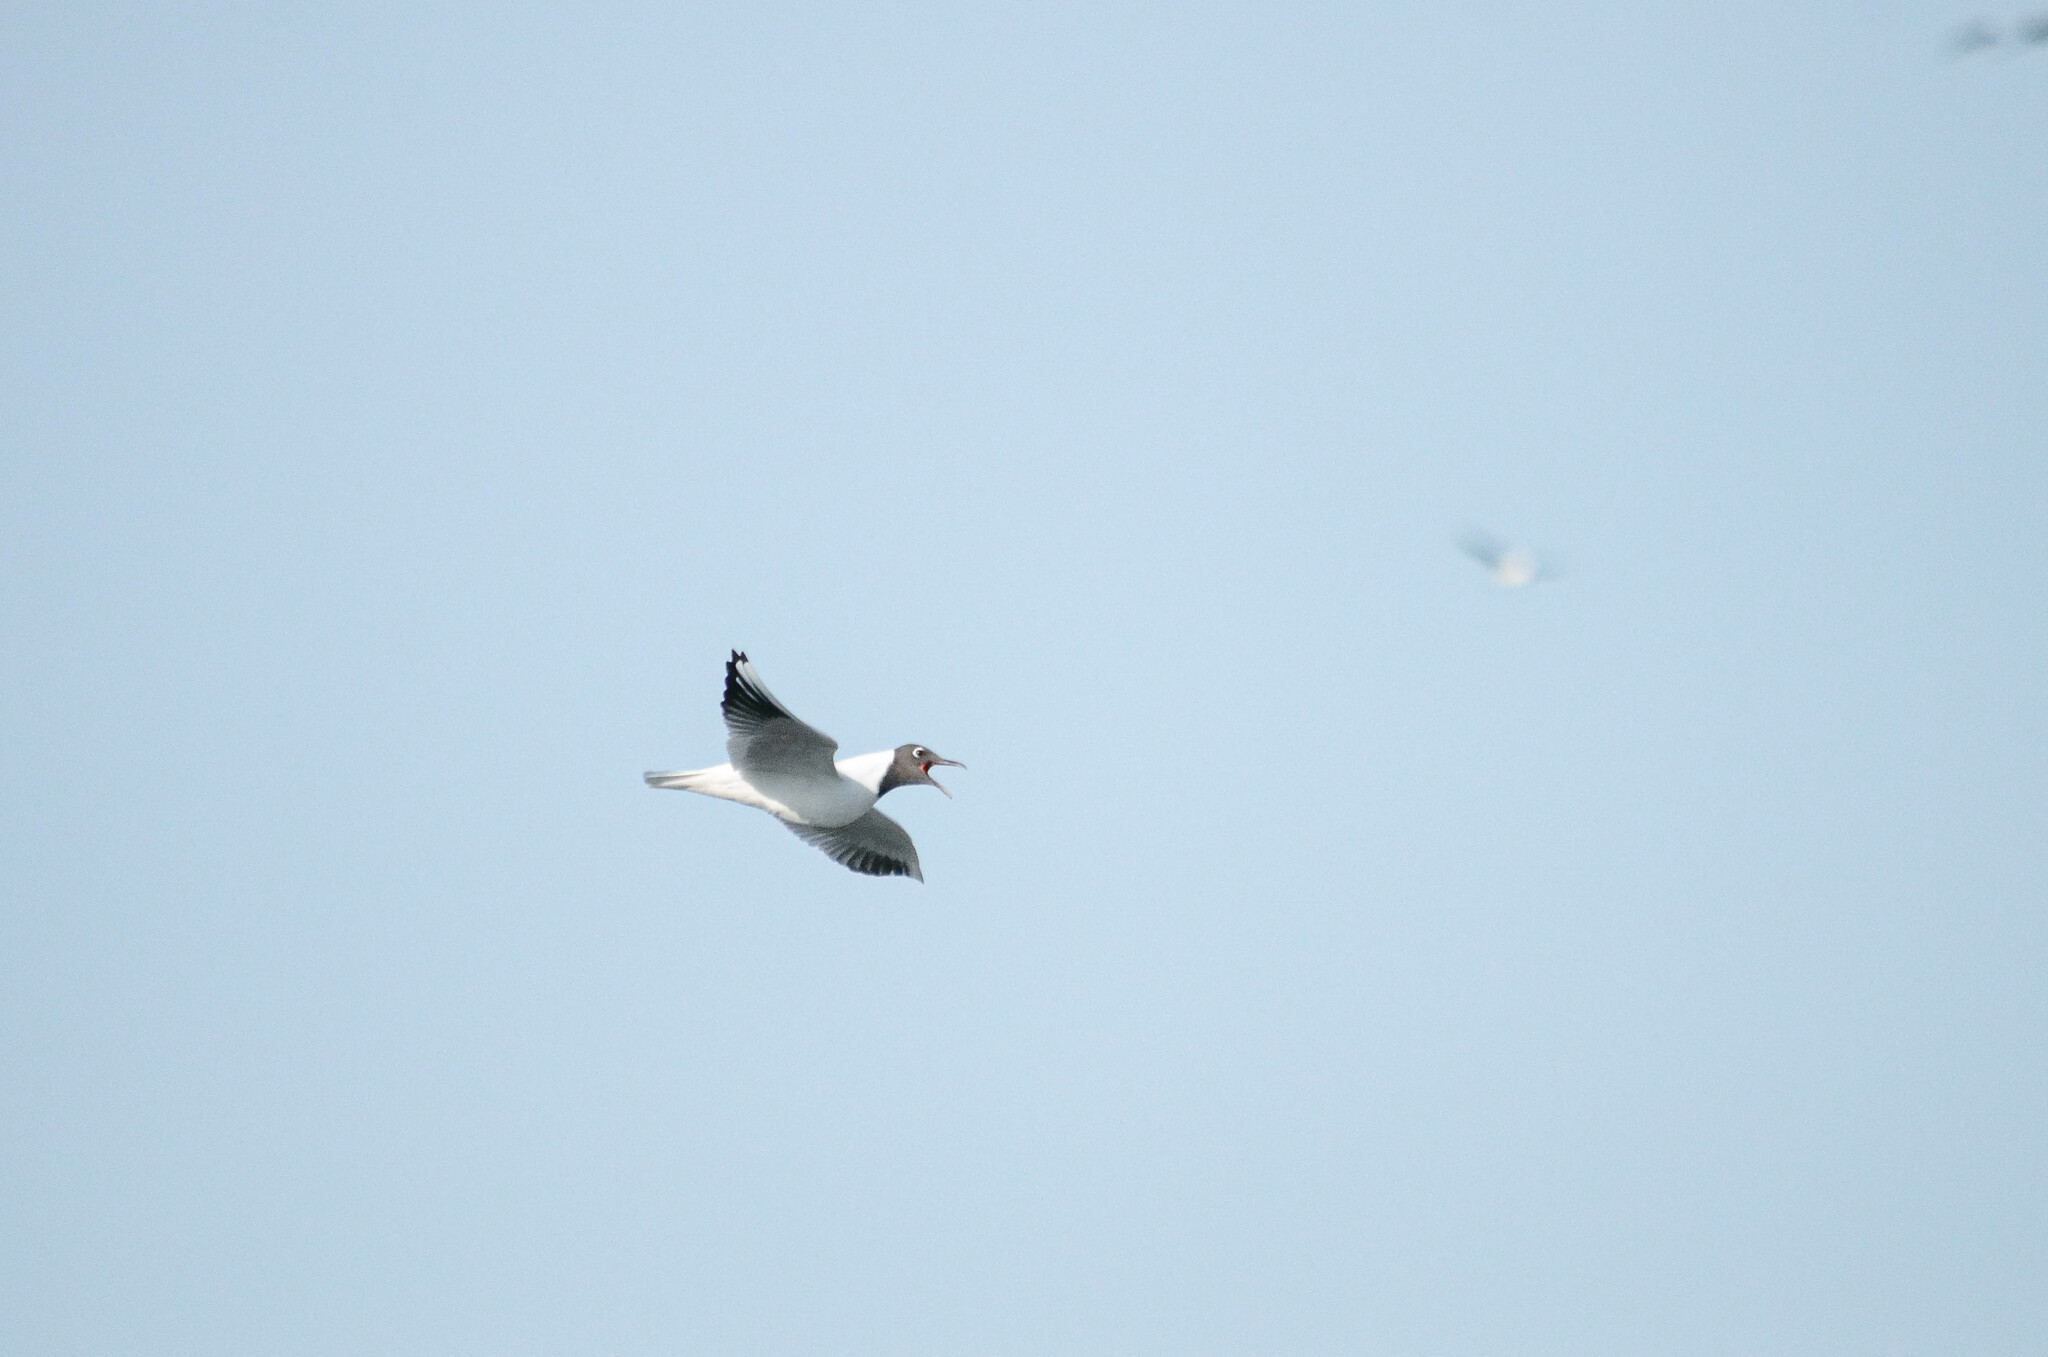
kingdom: Animalia
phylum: Chordata
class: Aves
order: Charadriiformes
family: Laridae
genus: Chroicocephalus
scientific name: Chroicocephalus ridibundus
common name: Black-headed gull
